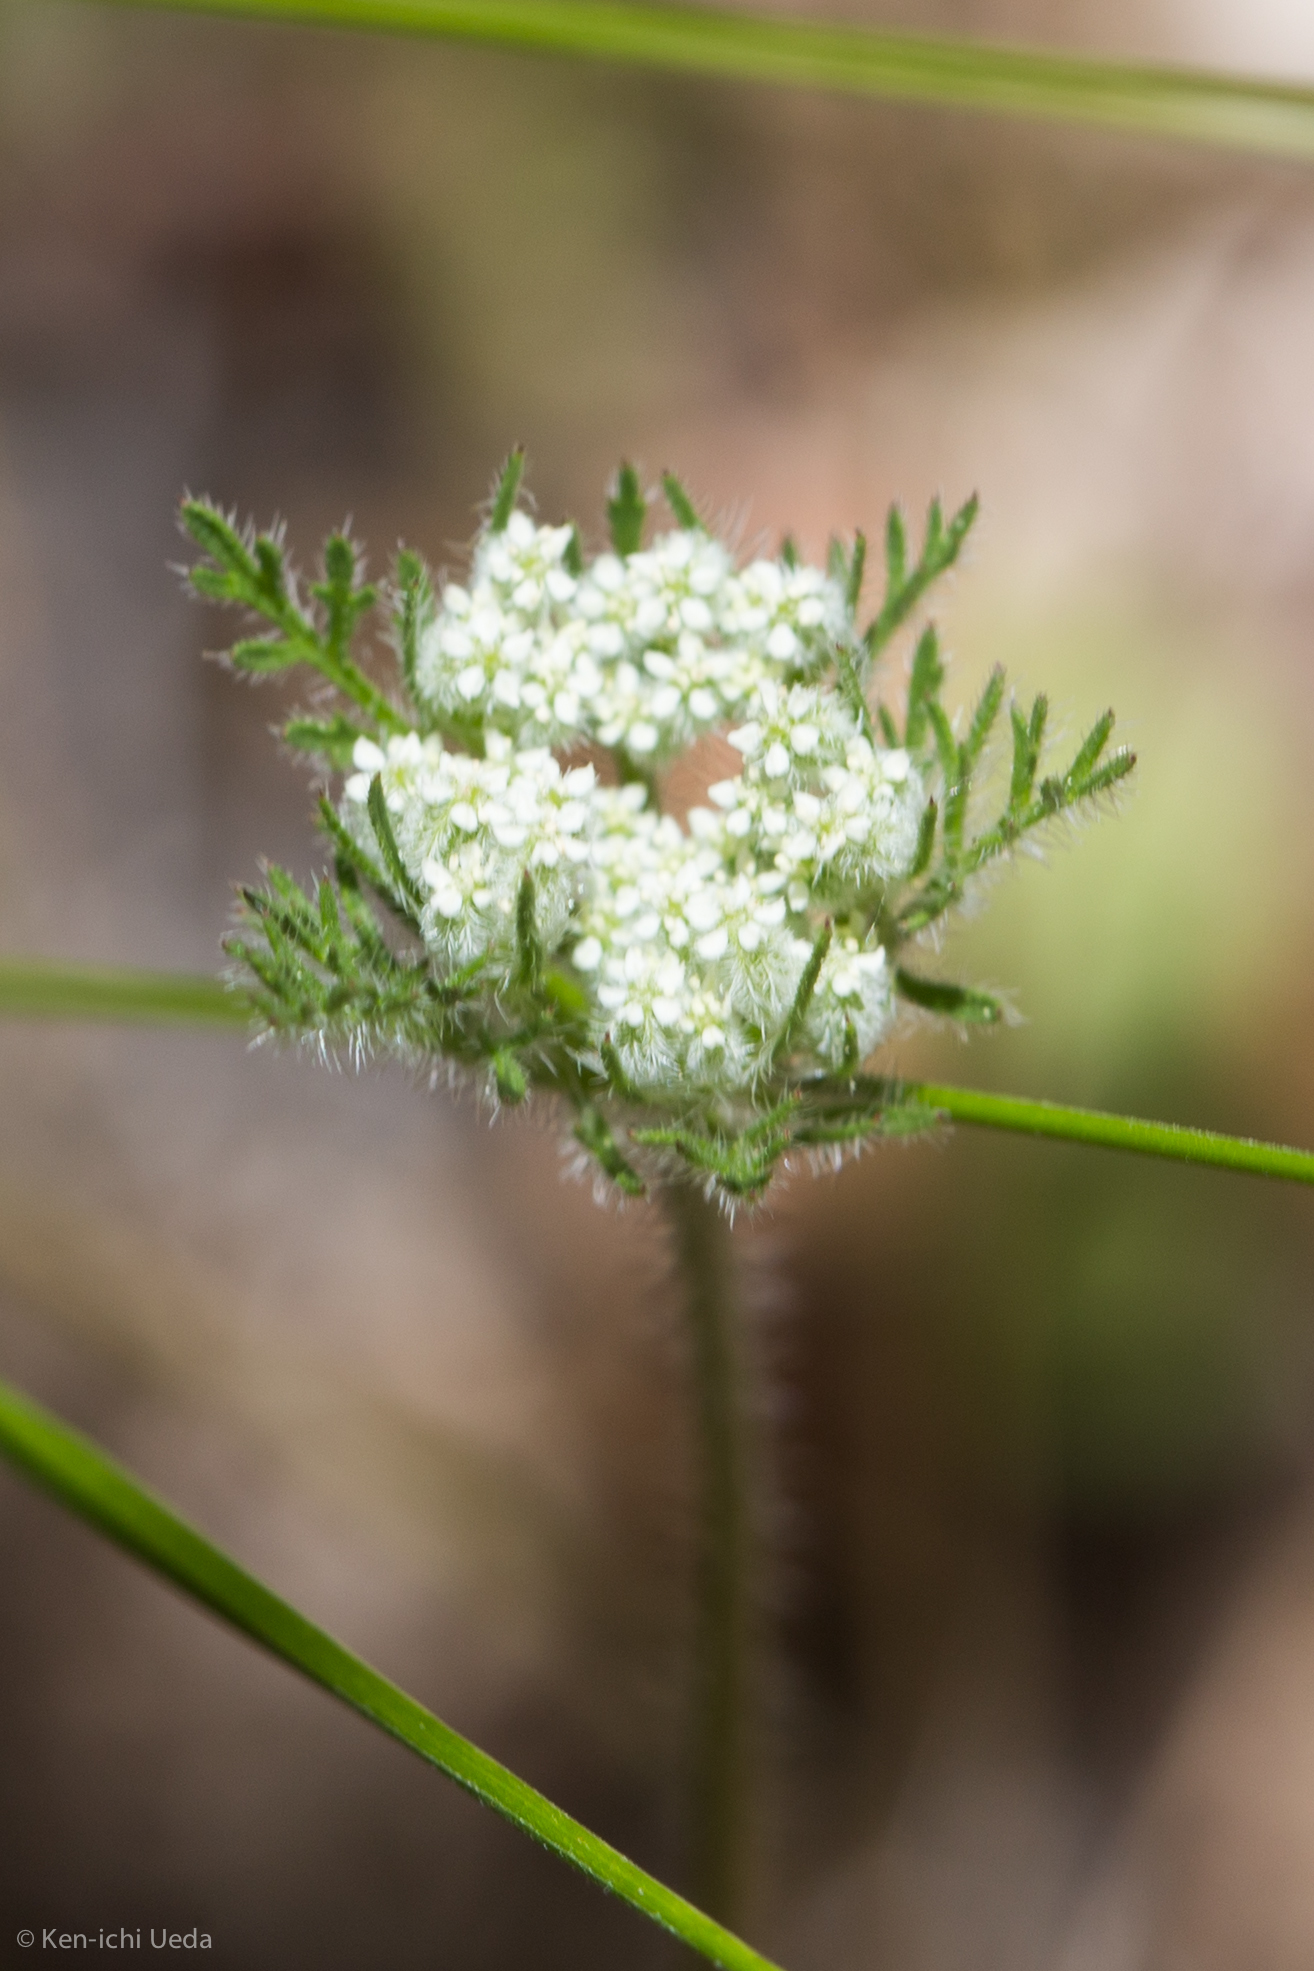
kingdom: Plantae
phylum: Tracheophyta
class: Magnoliopsida
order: Apiales
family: Apiaceae
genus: Daucus
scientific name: Daucus pusillus
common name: Southwest wild carrot
